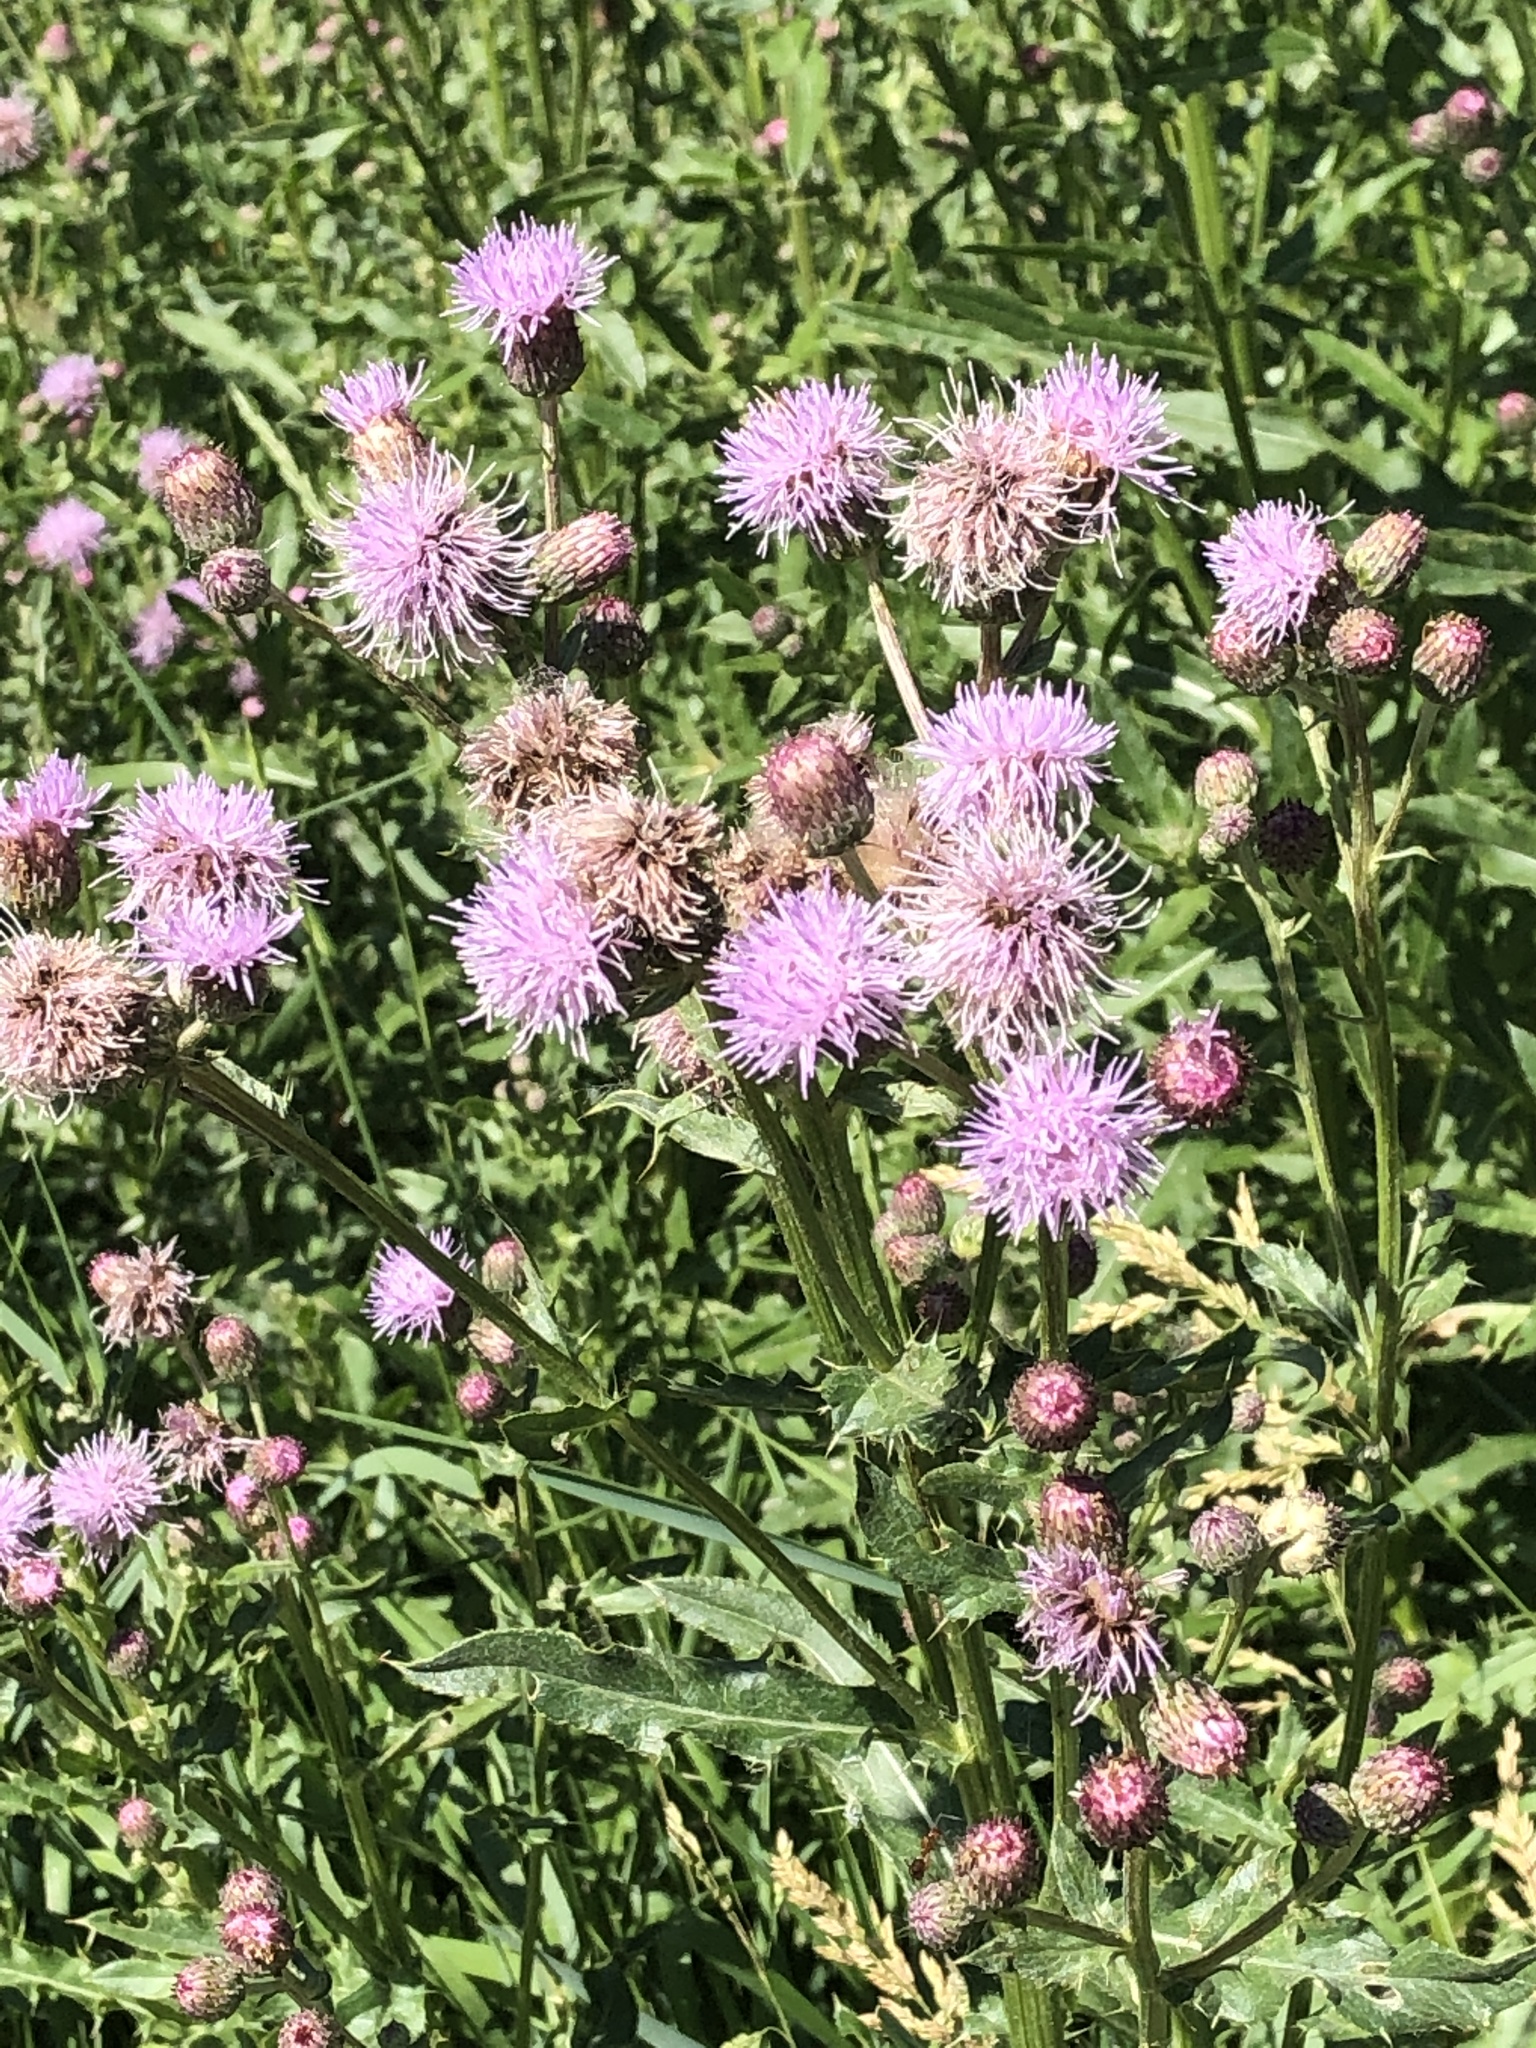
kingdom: Plantae
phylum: Tracheophyta
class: Magnoliopsida
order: Asterales
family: Asteraceae
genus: Cirsium
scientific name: Cirsium arvense
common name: Creeping thistle
